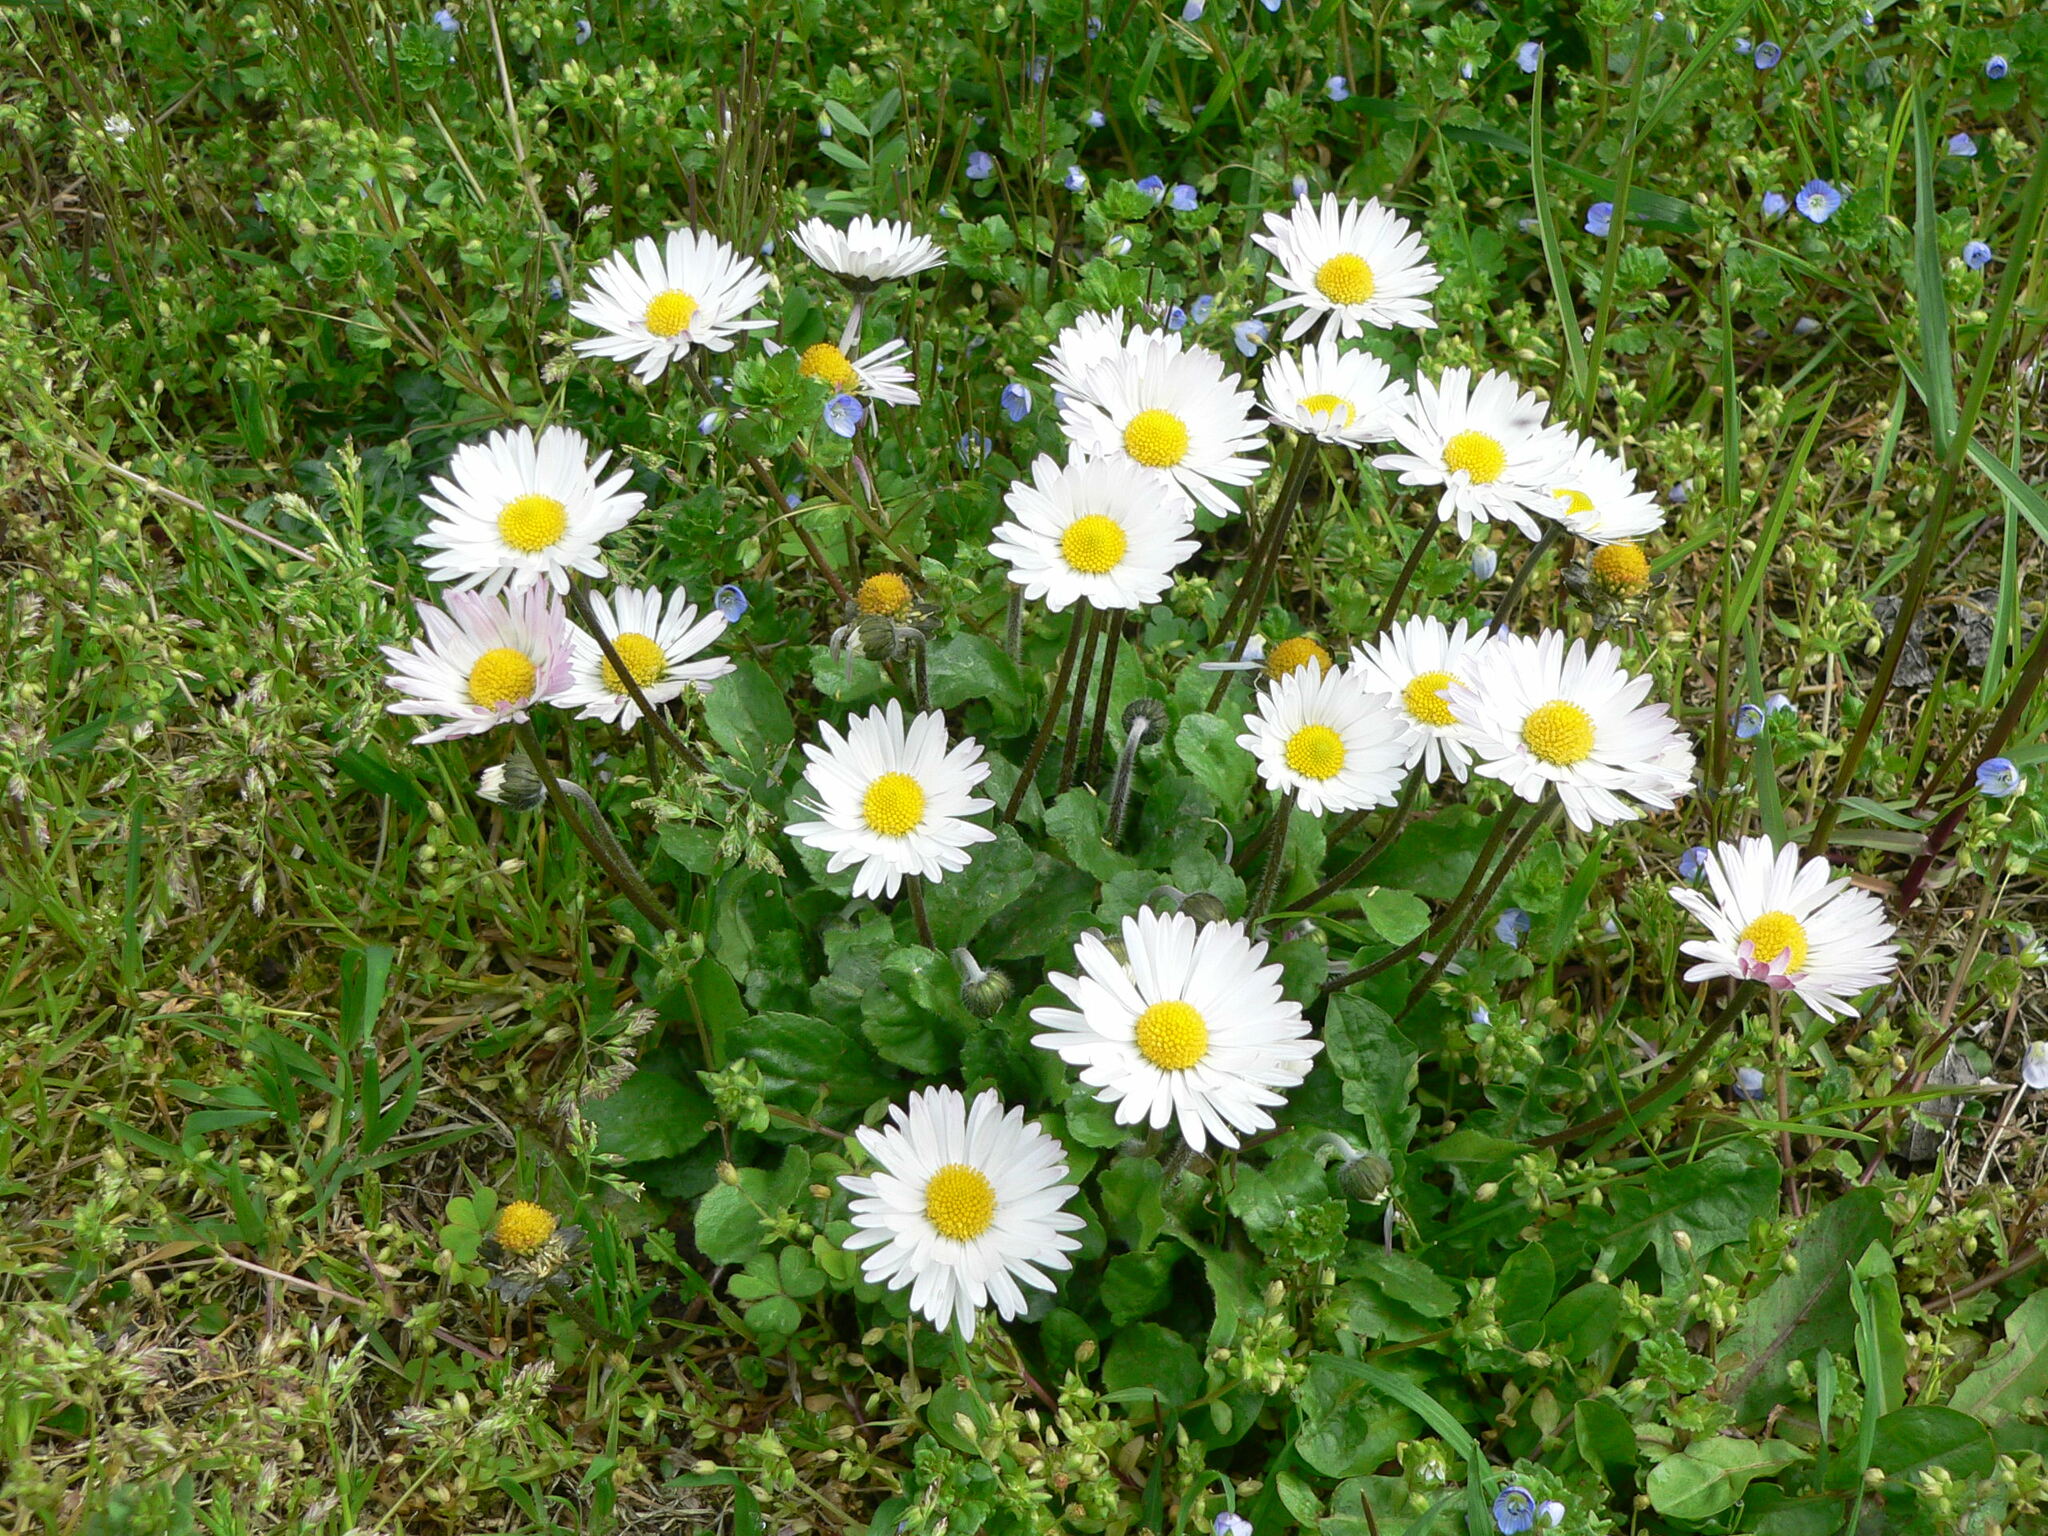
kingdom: Plantae
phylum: Tracheophyta
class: Magnoliopsida
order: Asterales
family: Asteraceae
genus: Bellis
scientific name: Bellis perennis
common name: Lawndaisy
